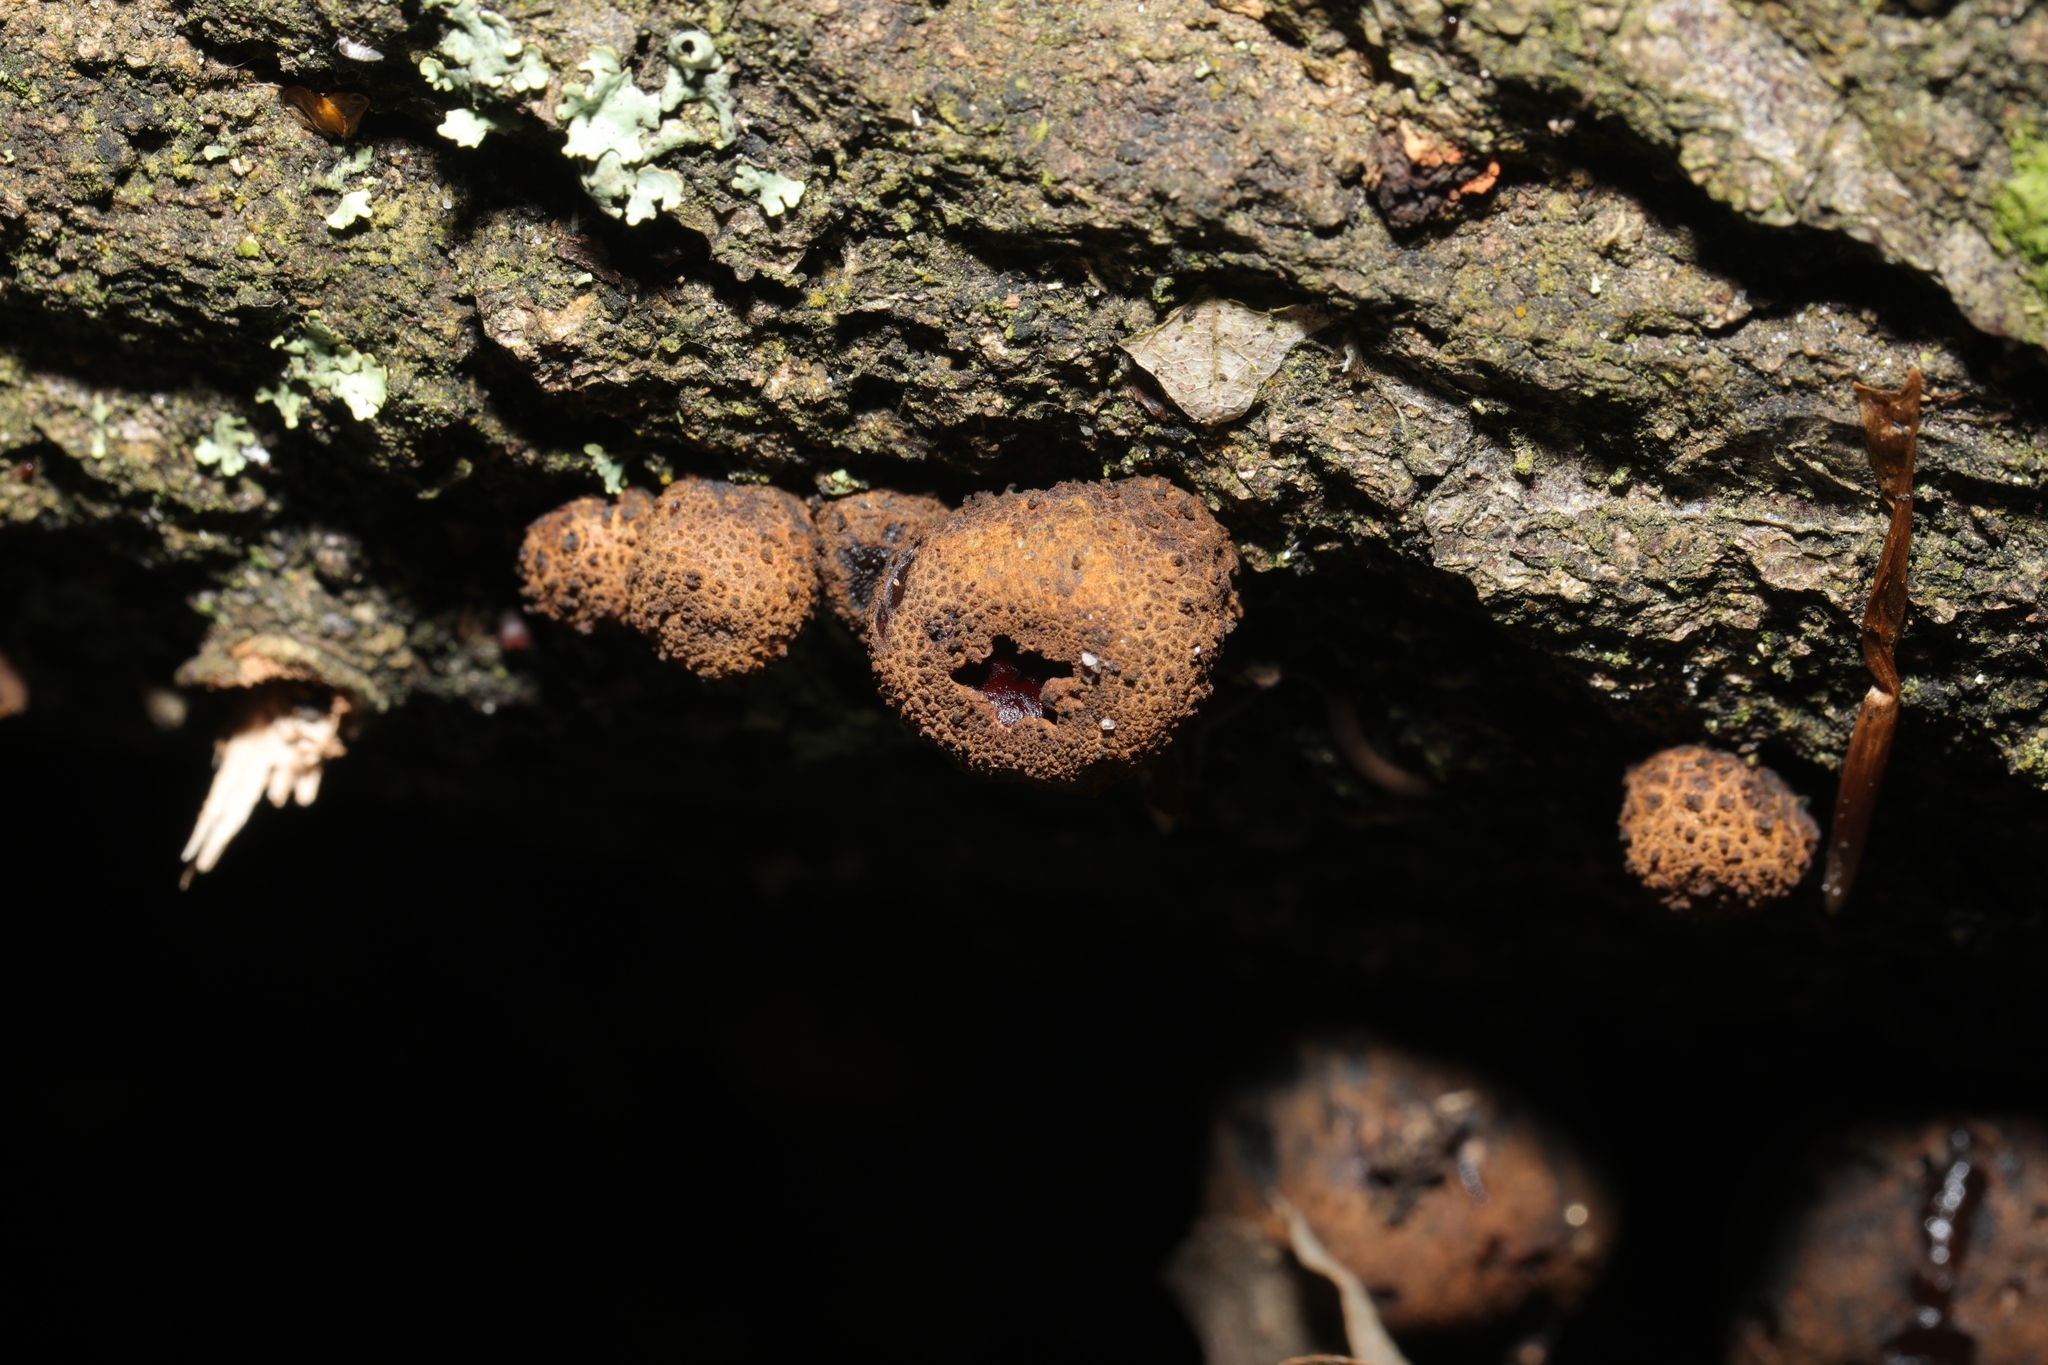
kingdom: Fungi
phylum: Ascomycota
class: Leotiomycetes
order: Phacidiales
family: Phacidiaceae
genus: Bulgaria
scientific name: Bulgaria inquinans
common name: Black bulgar
